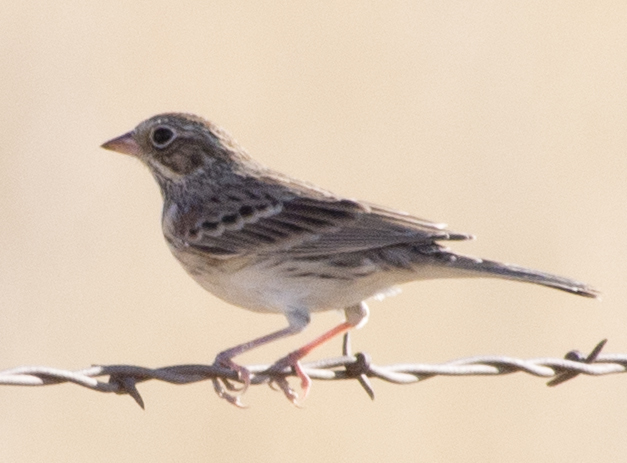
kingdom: Animalia
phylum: Chordata
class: Aves
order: Passeriformes
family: Passerellidae
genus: Pooecetes
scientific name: Pooecetes gramineus
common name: Vesper sparrow
